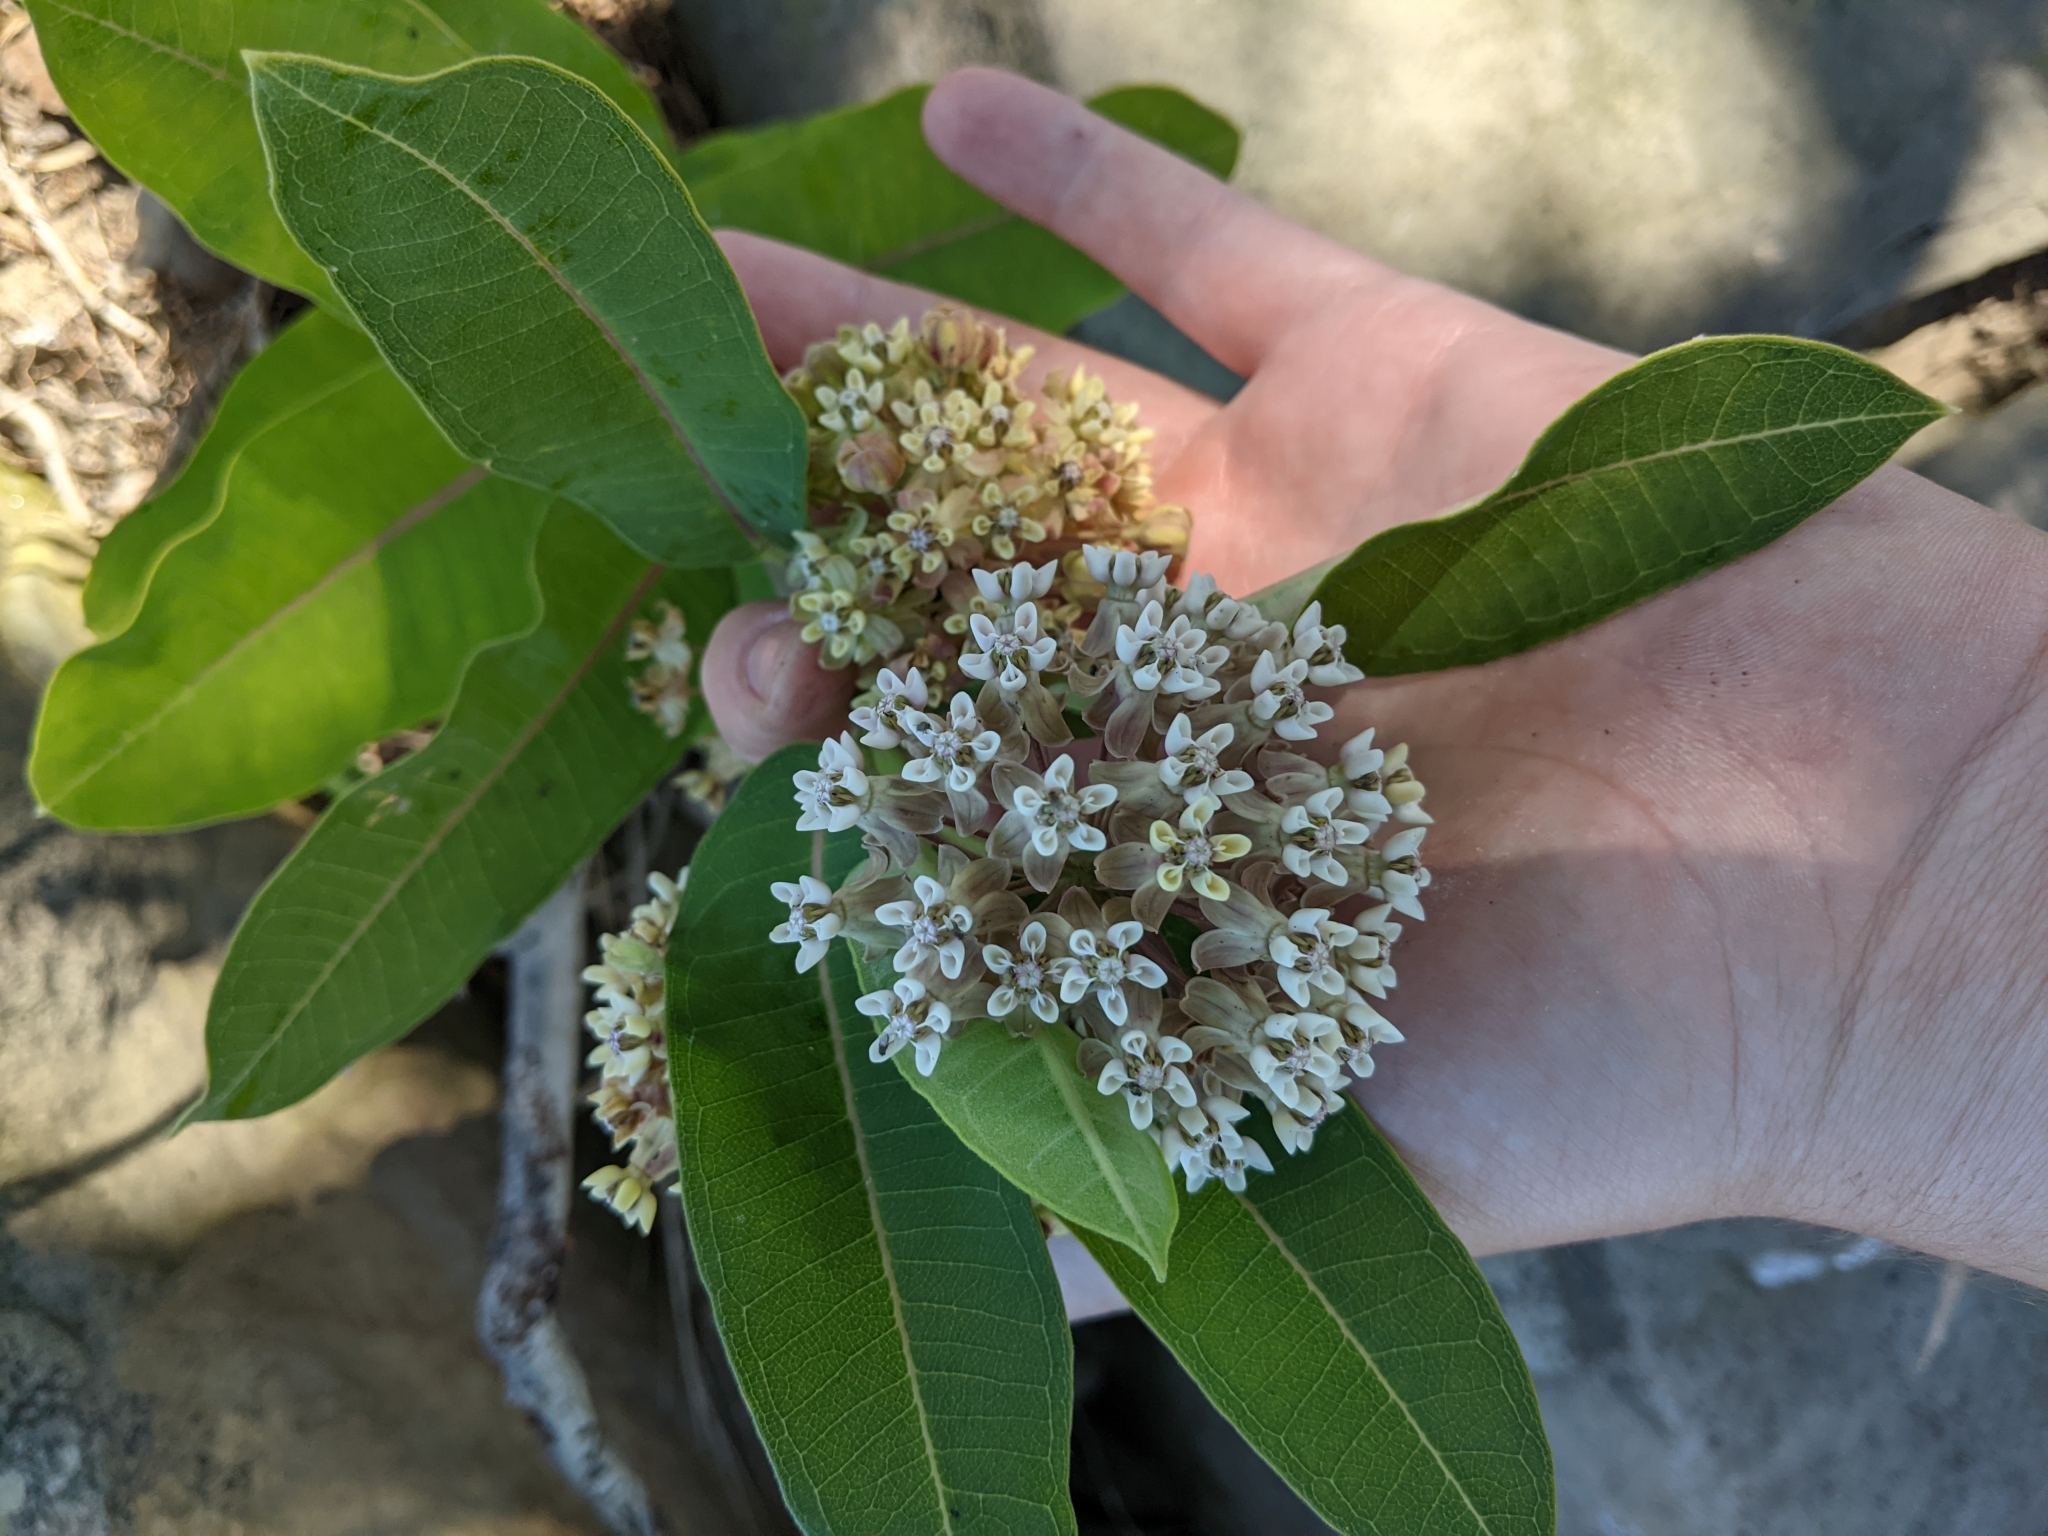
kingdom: Plantae
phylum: Tracheophyta
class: Magnoliopsida
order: Gentianales
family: Apocynaceae
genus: Asclepias
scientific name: Asclepias syriaca
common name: Common milkweed
